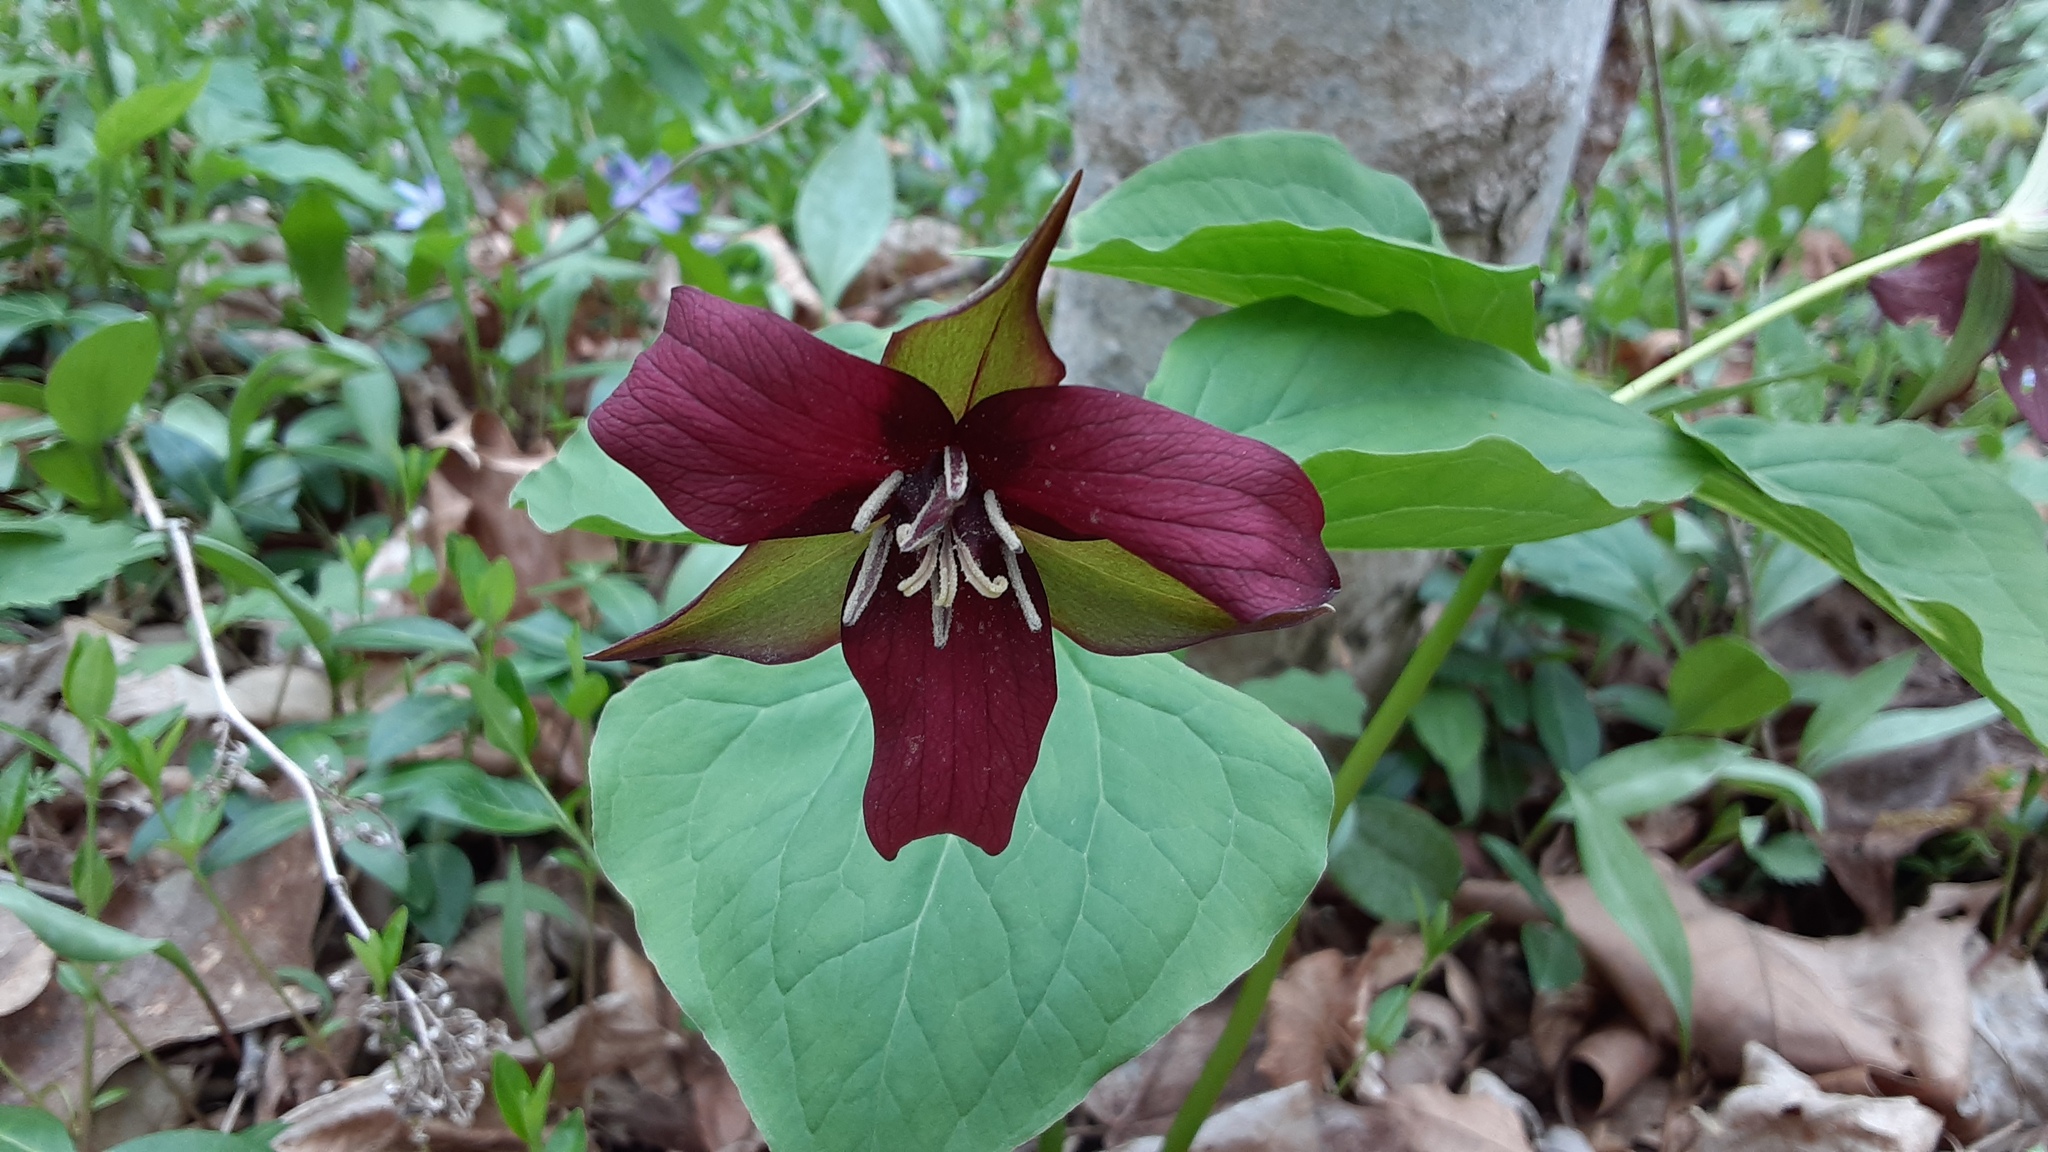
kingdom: Plantae
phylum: Tracheophyta
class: Liliopsida
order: Liliales
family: Melanthiaceae
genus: Trillium
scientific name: Trillium erectum
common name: Purple trillium
